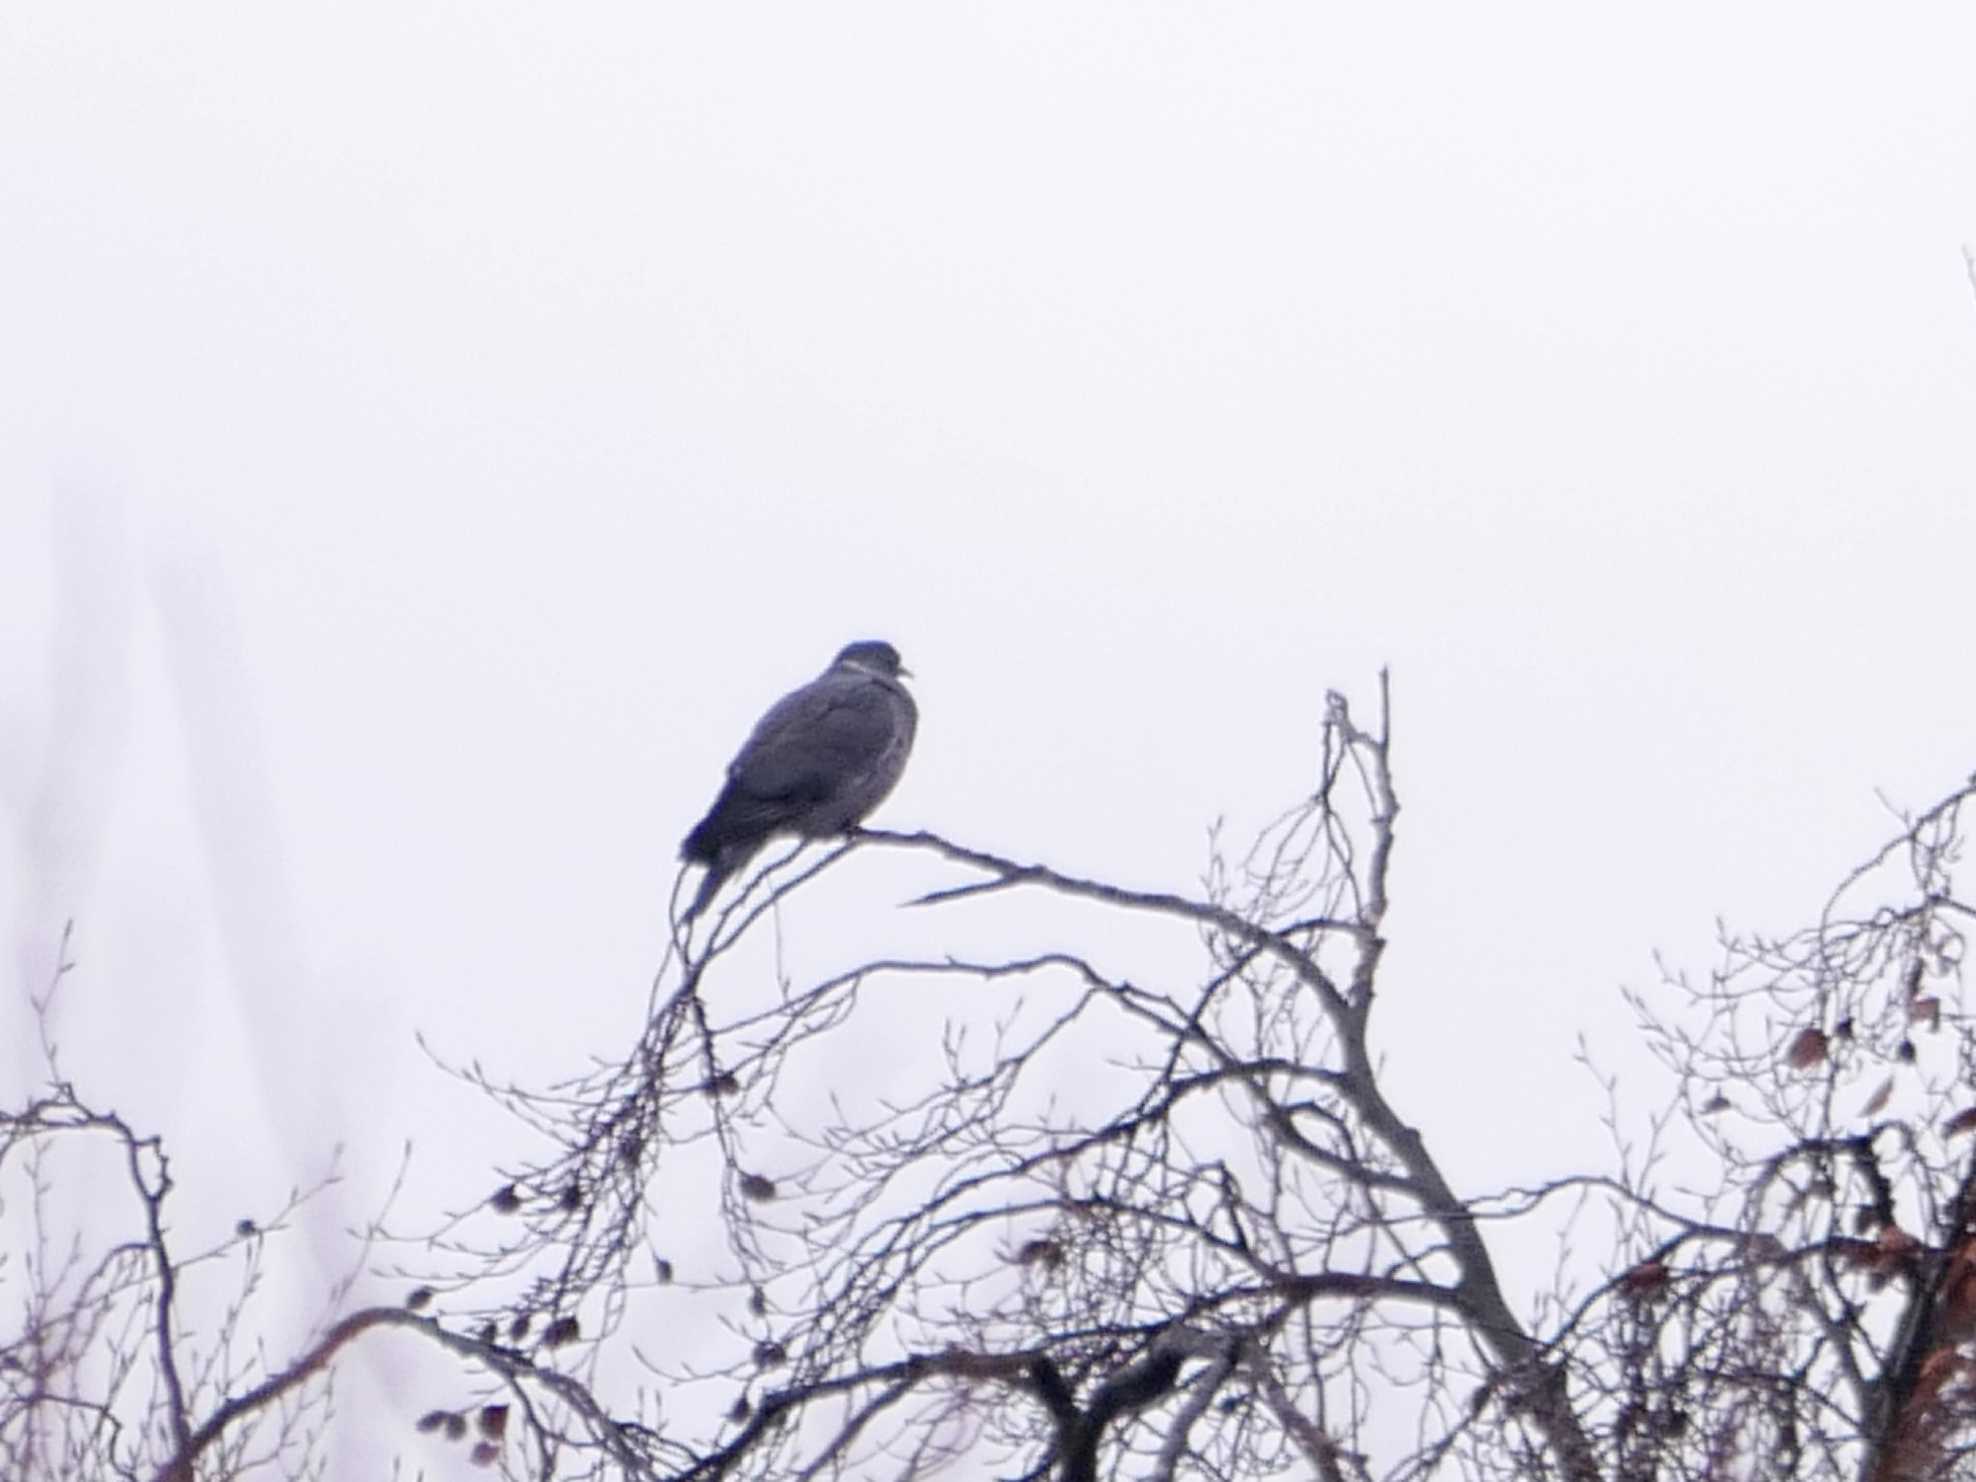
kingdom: Animalia
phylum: Chordata
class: Aves
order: Columbiformes
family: Columbidae
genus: Columba
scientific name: Columba palumbus
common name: Common wood pigeon
